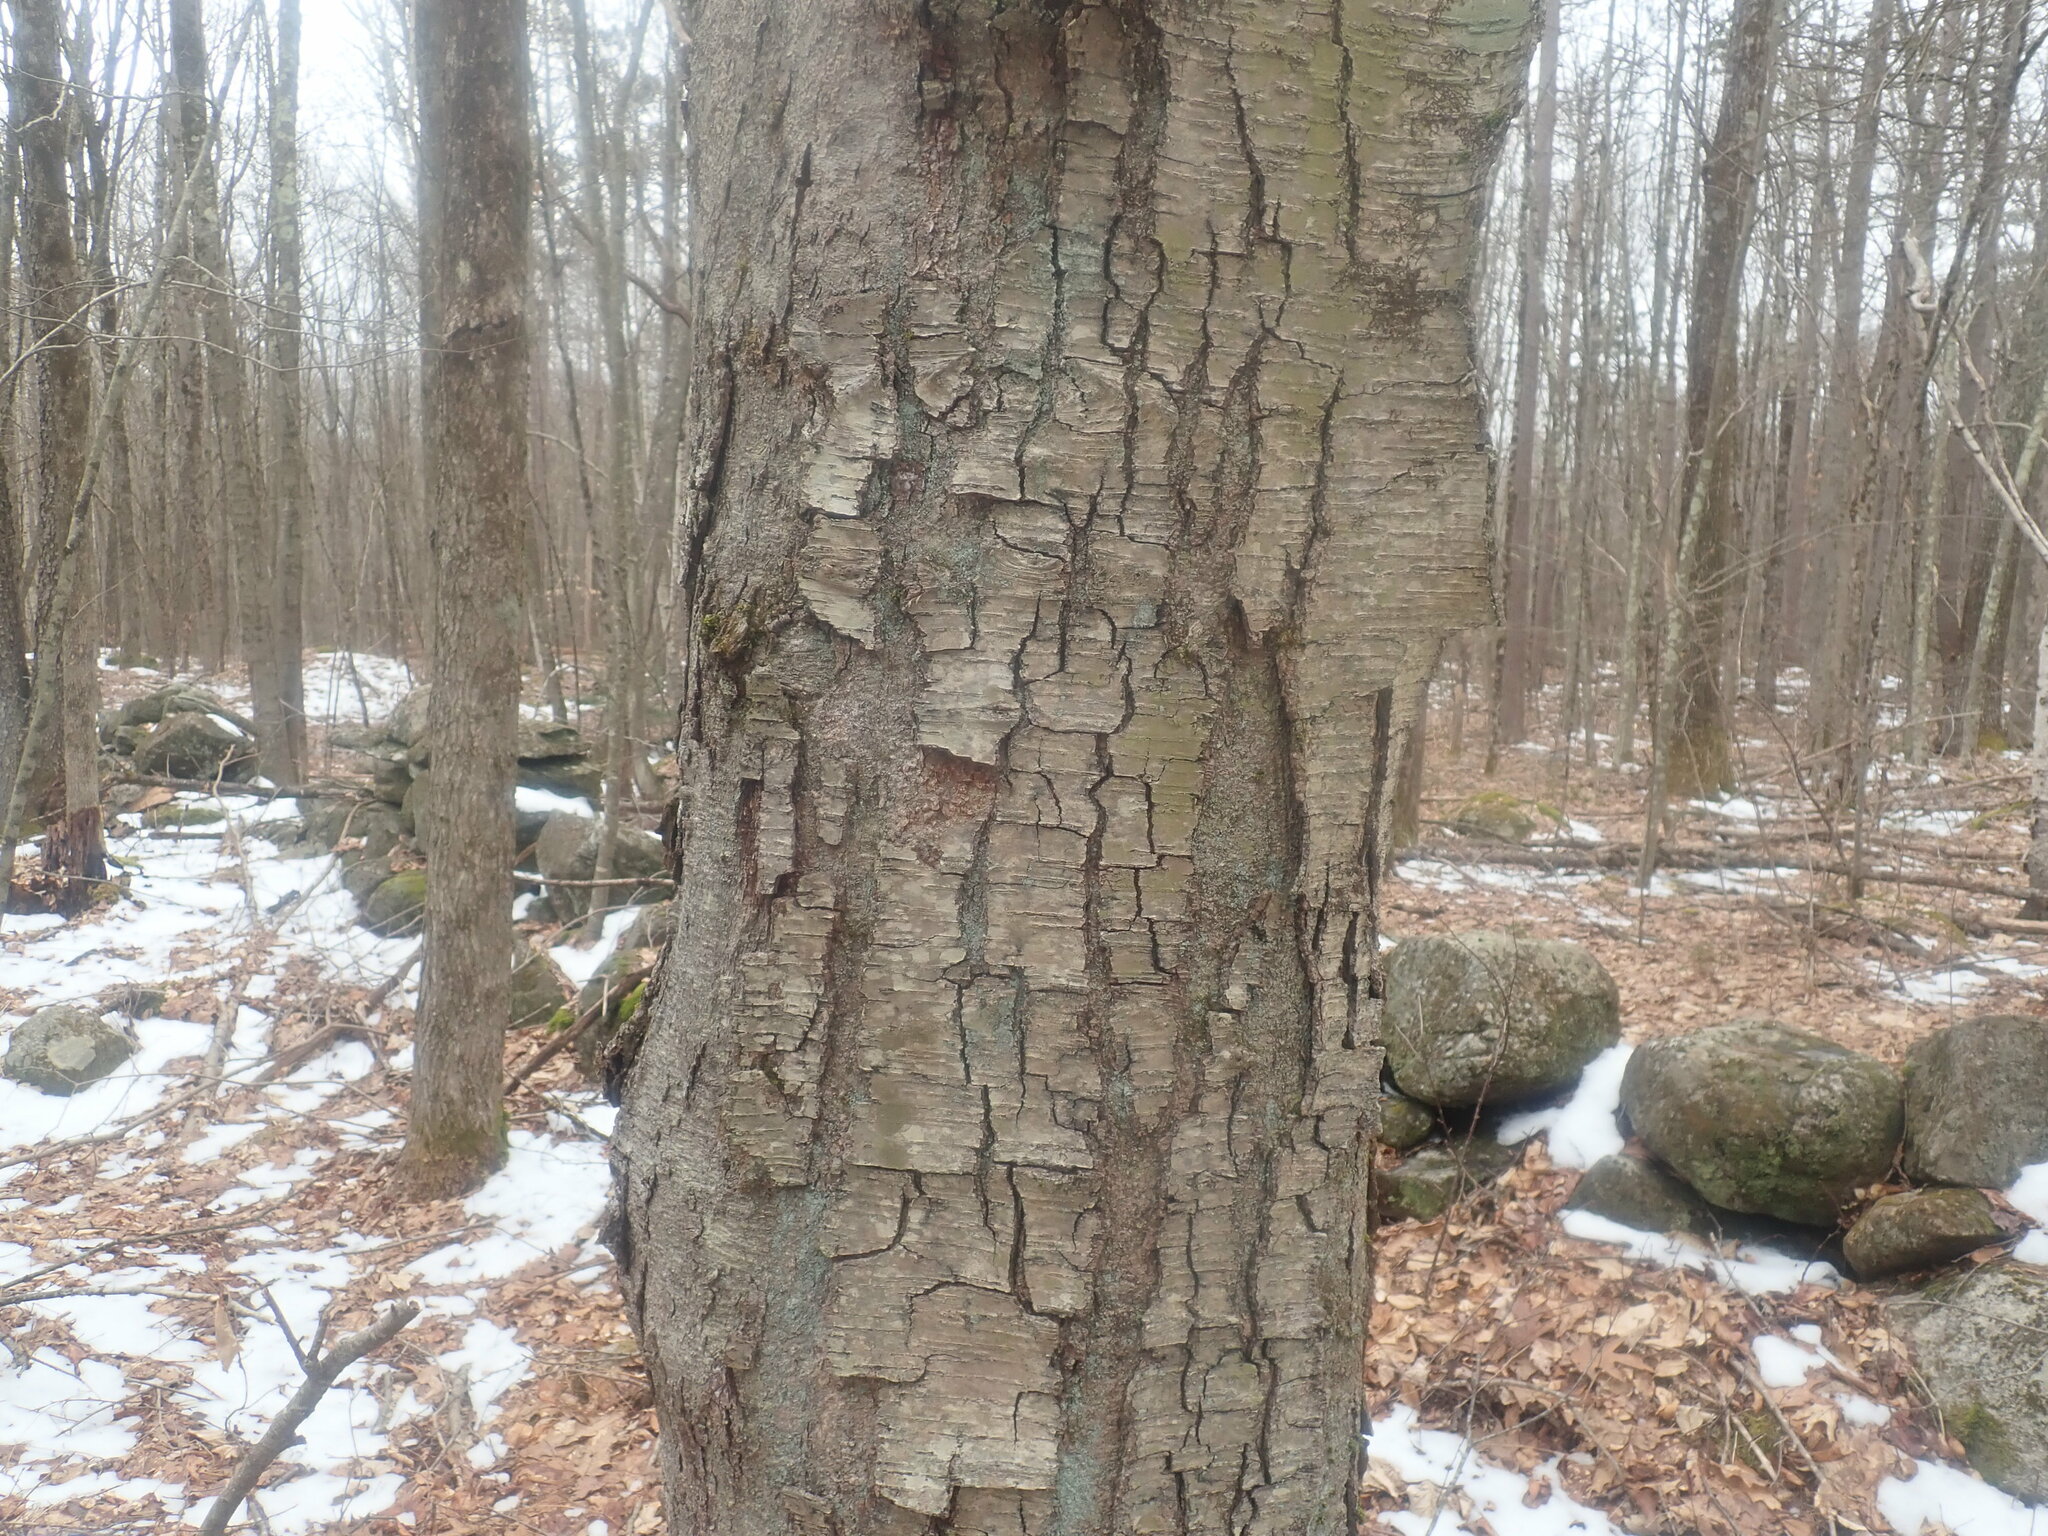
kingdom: Plantae
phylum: Tracheophyta
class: Magnoliopsida
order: Fagales
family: Betulaceae
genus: Betula
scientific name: Betula lenta
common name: Black birch
